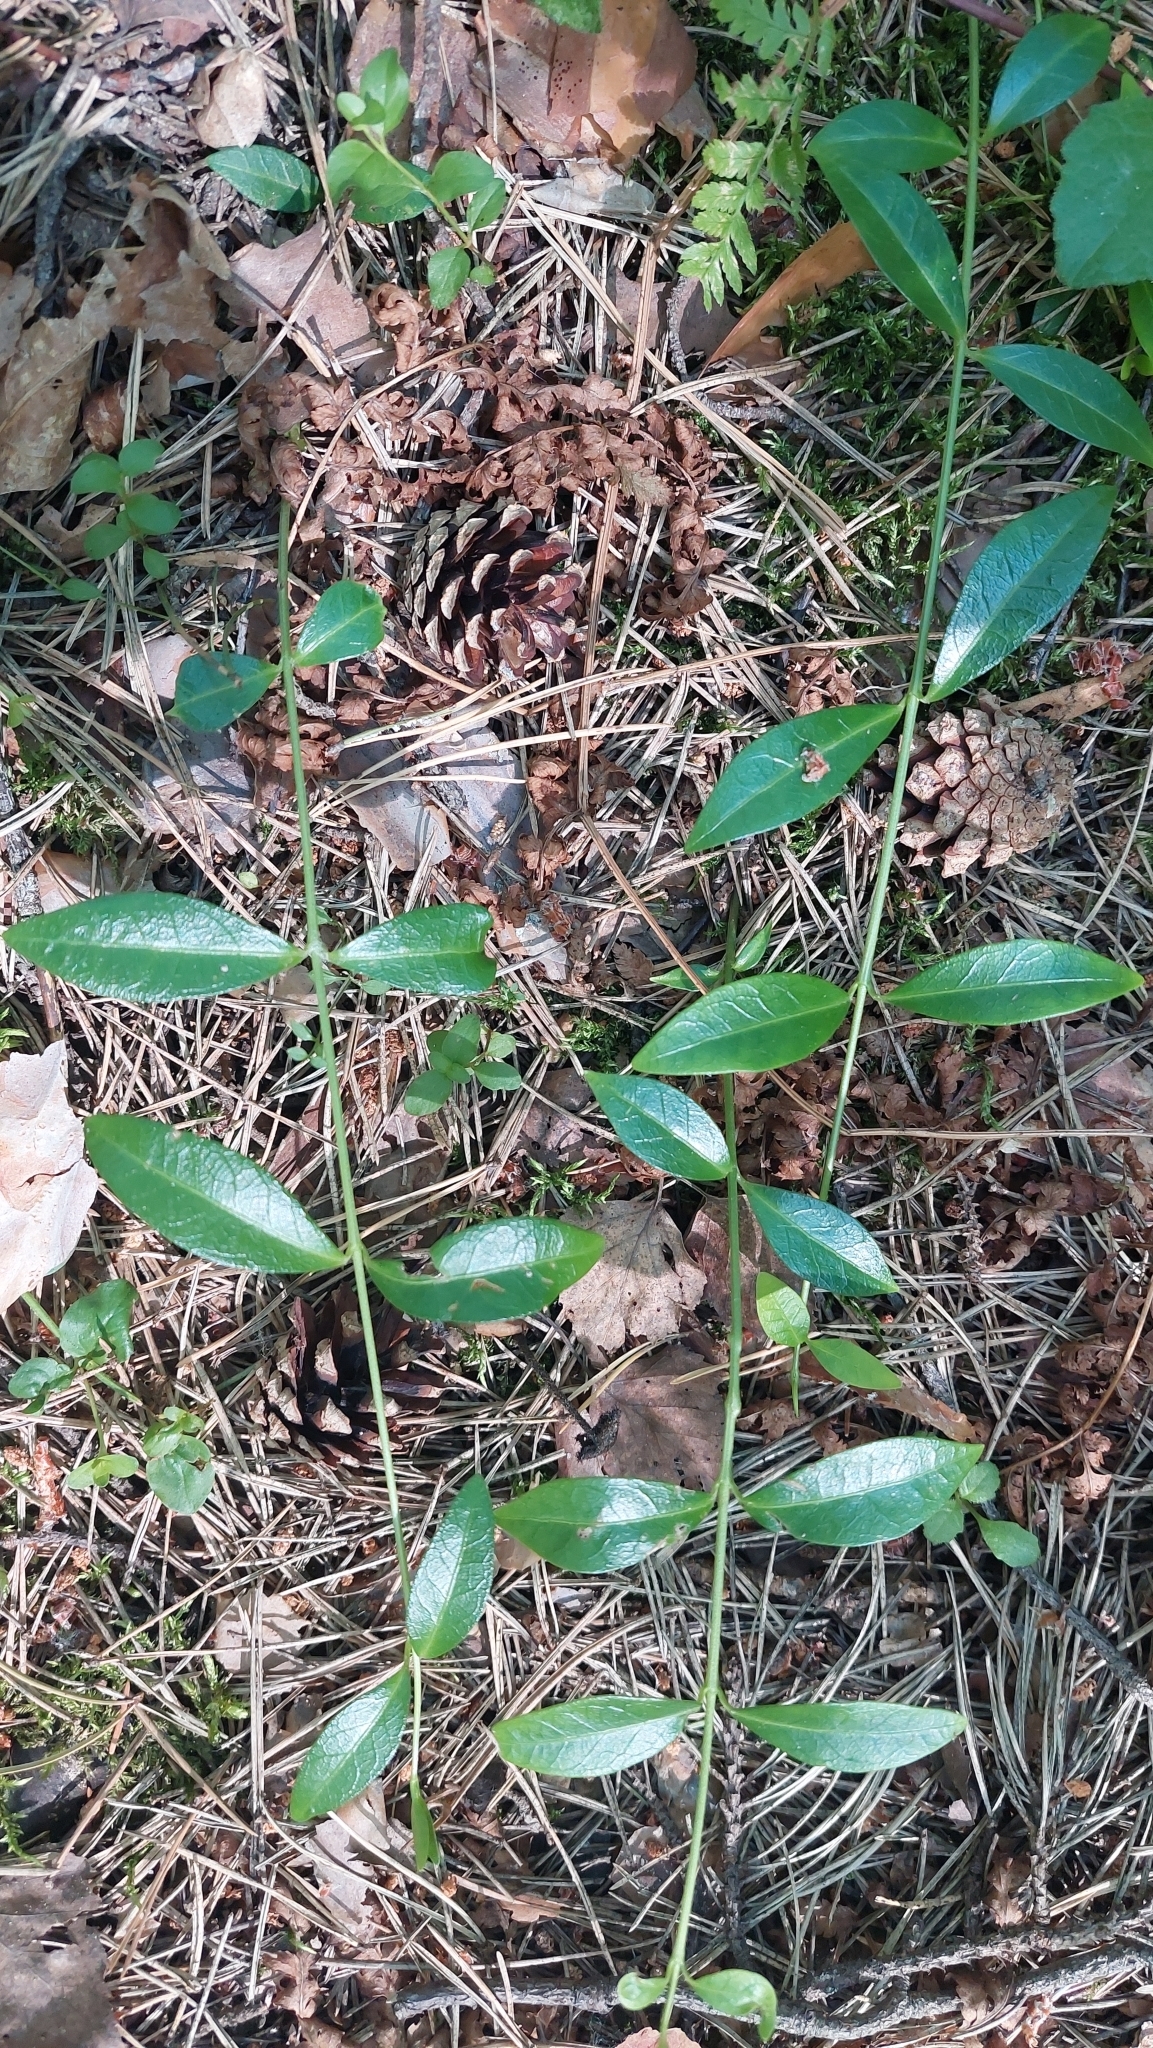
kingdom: Plantae
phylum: Tracheophyta
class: Magnoliopsida
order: Gentianales
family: Apocynaceae
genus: Vinca
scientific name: Vinca minor
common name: Lesser periwinkle
